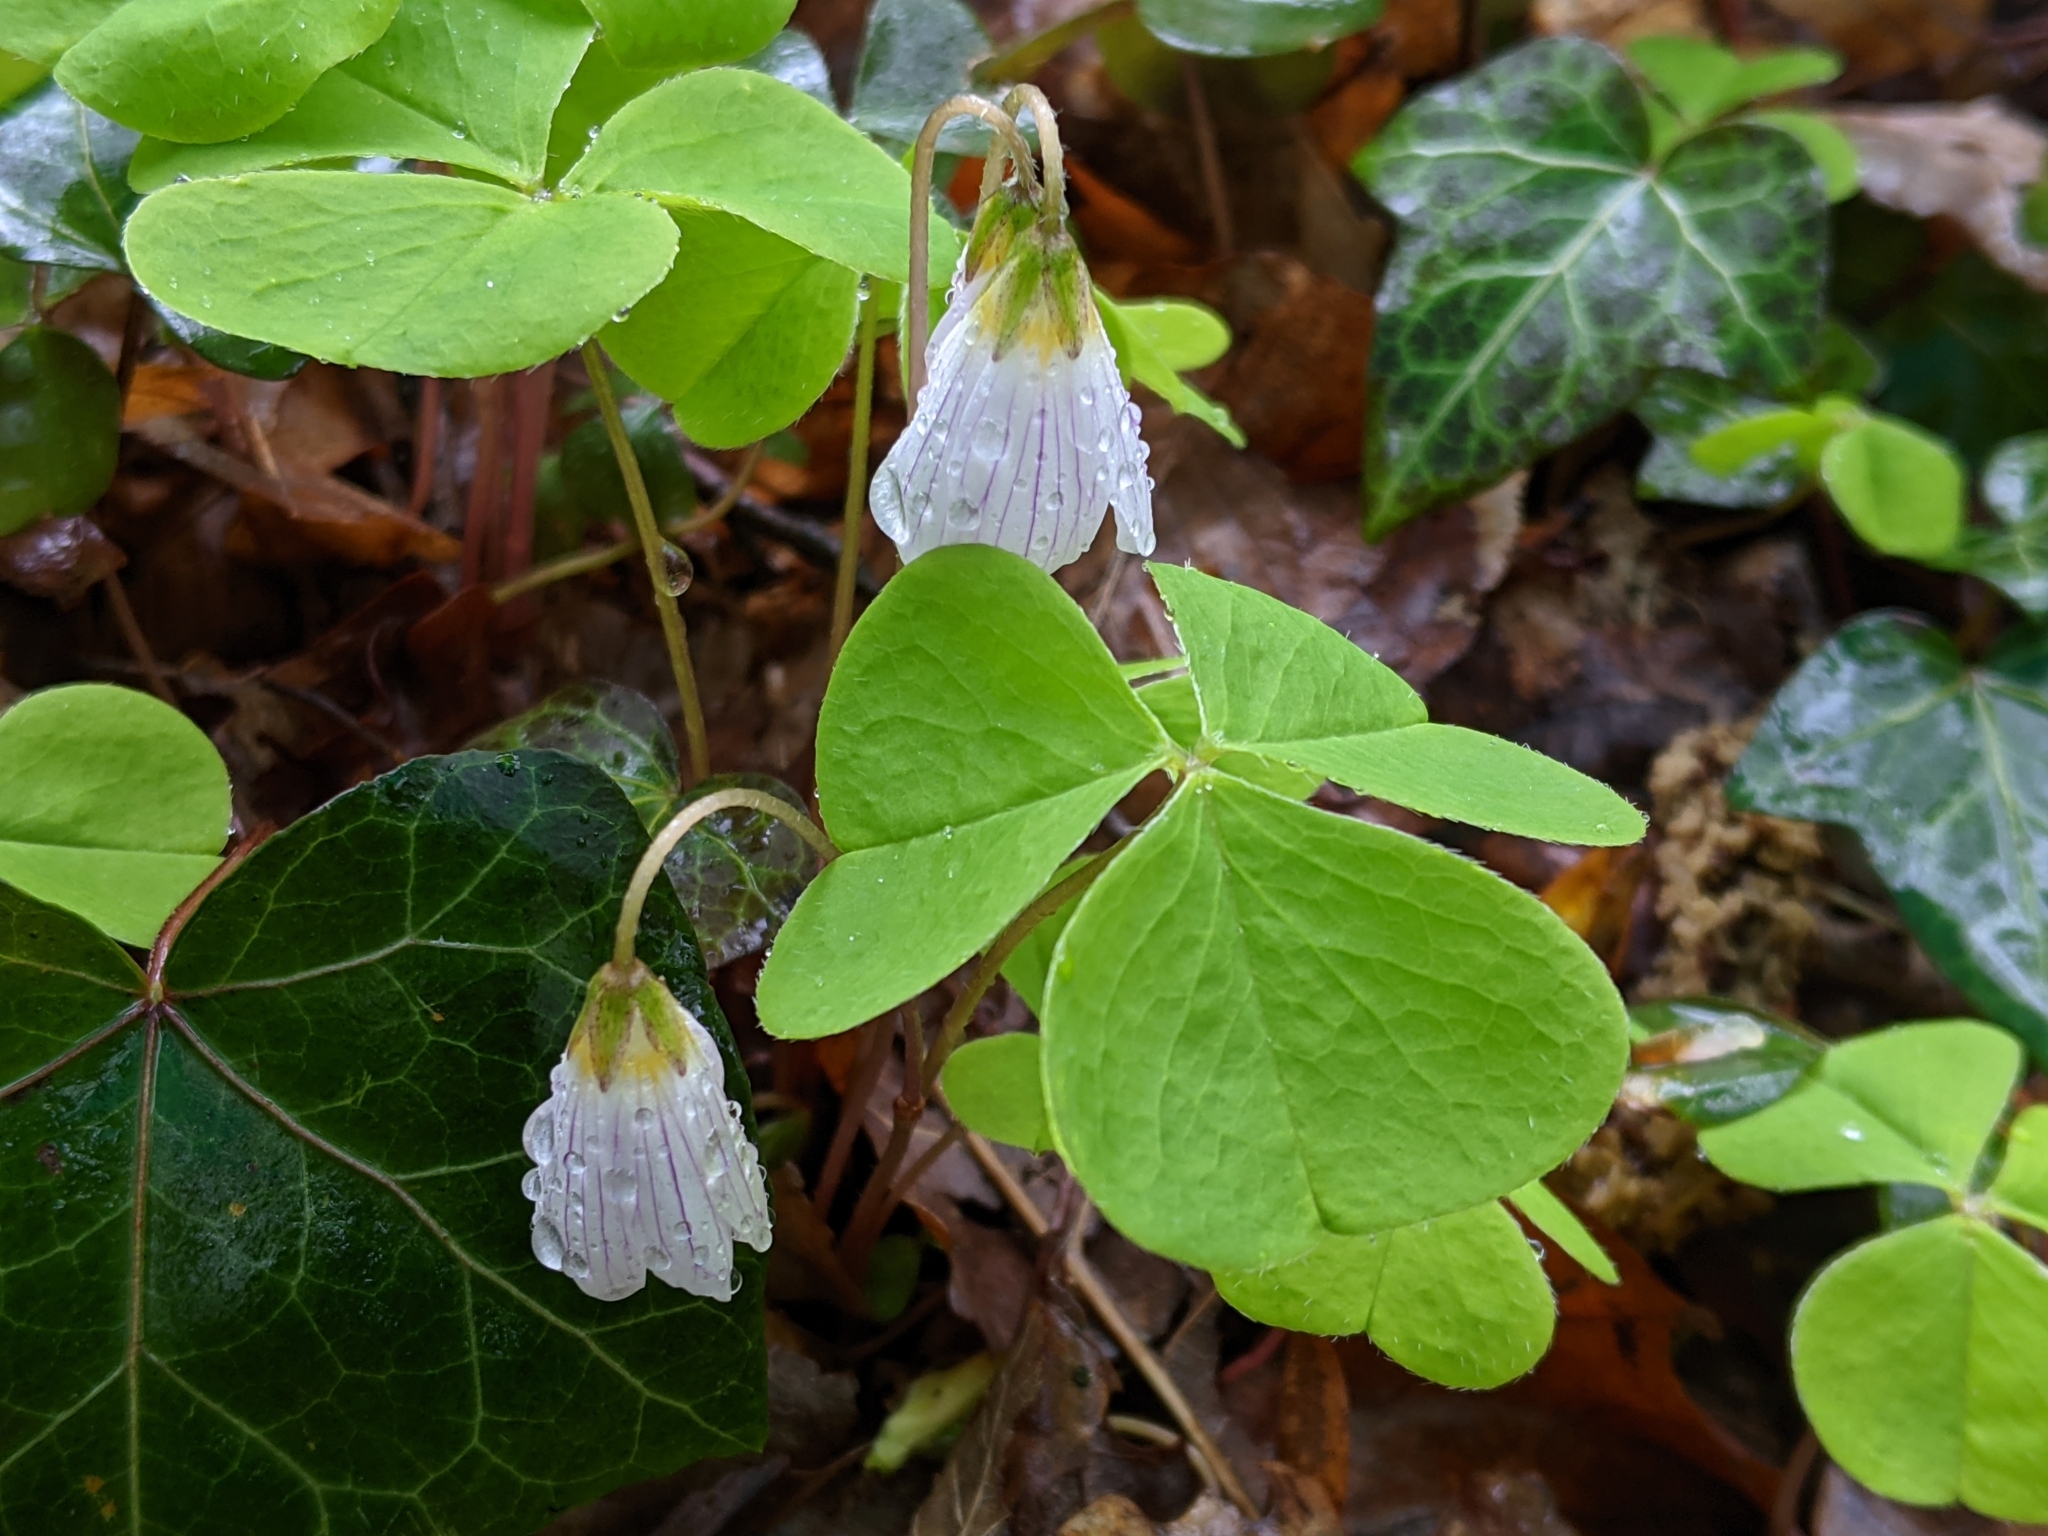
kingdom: Plantae
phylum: Tracheophyta
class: Magnoliopsida
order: Oxalidales
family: Oxalidaceae
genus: Oxalis
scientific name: Oxalis acetosella
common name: Wood-sorrel
